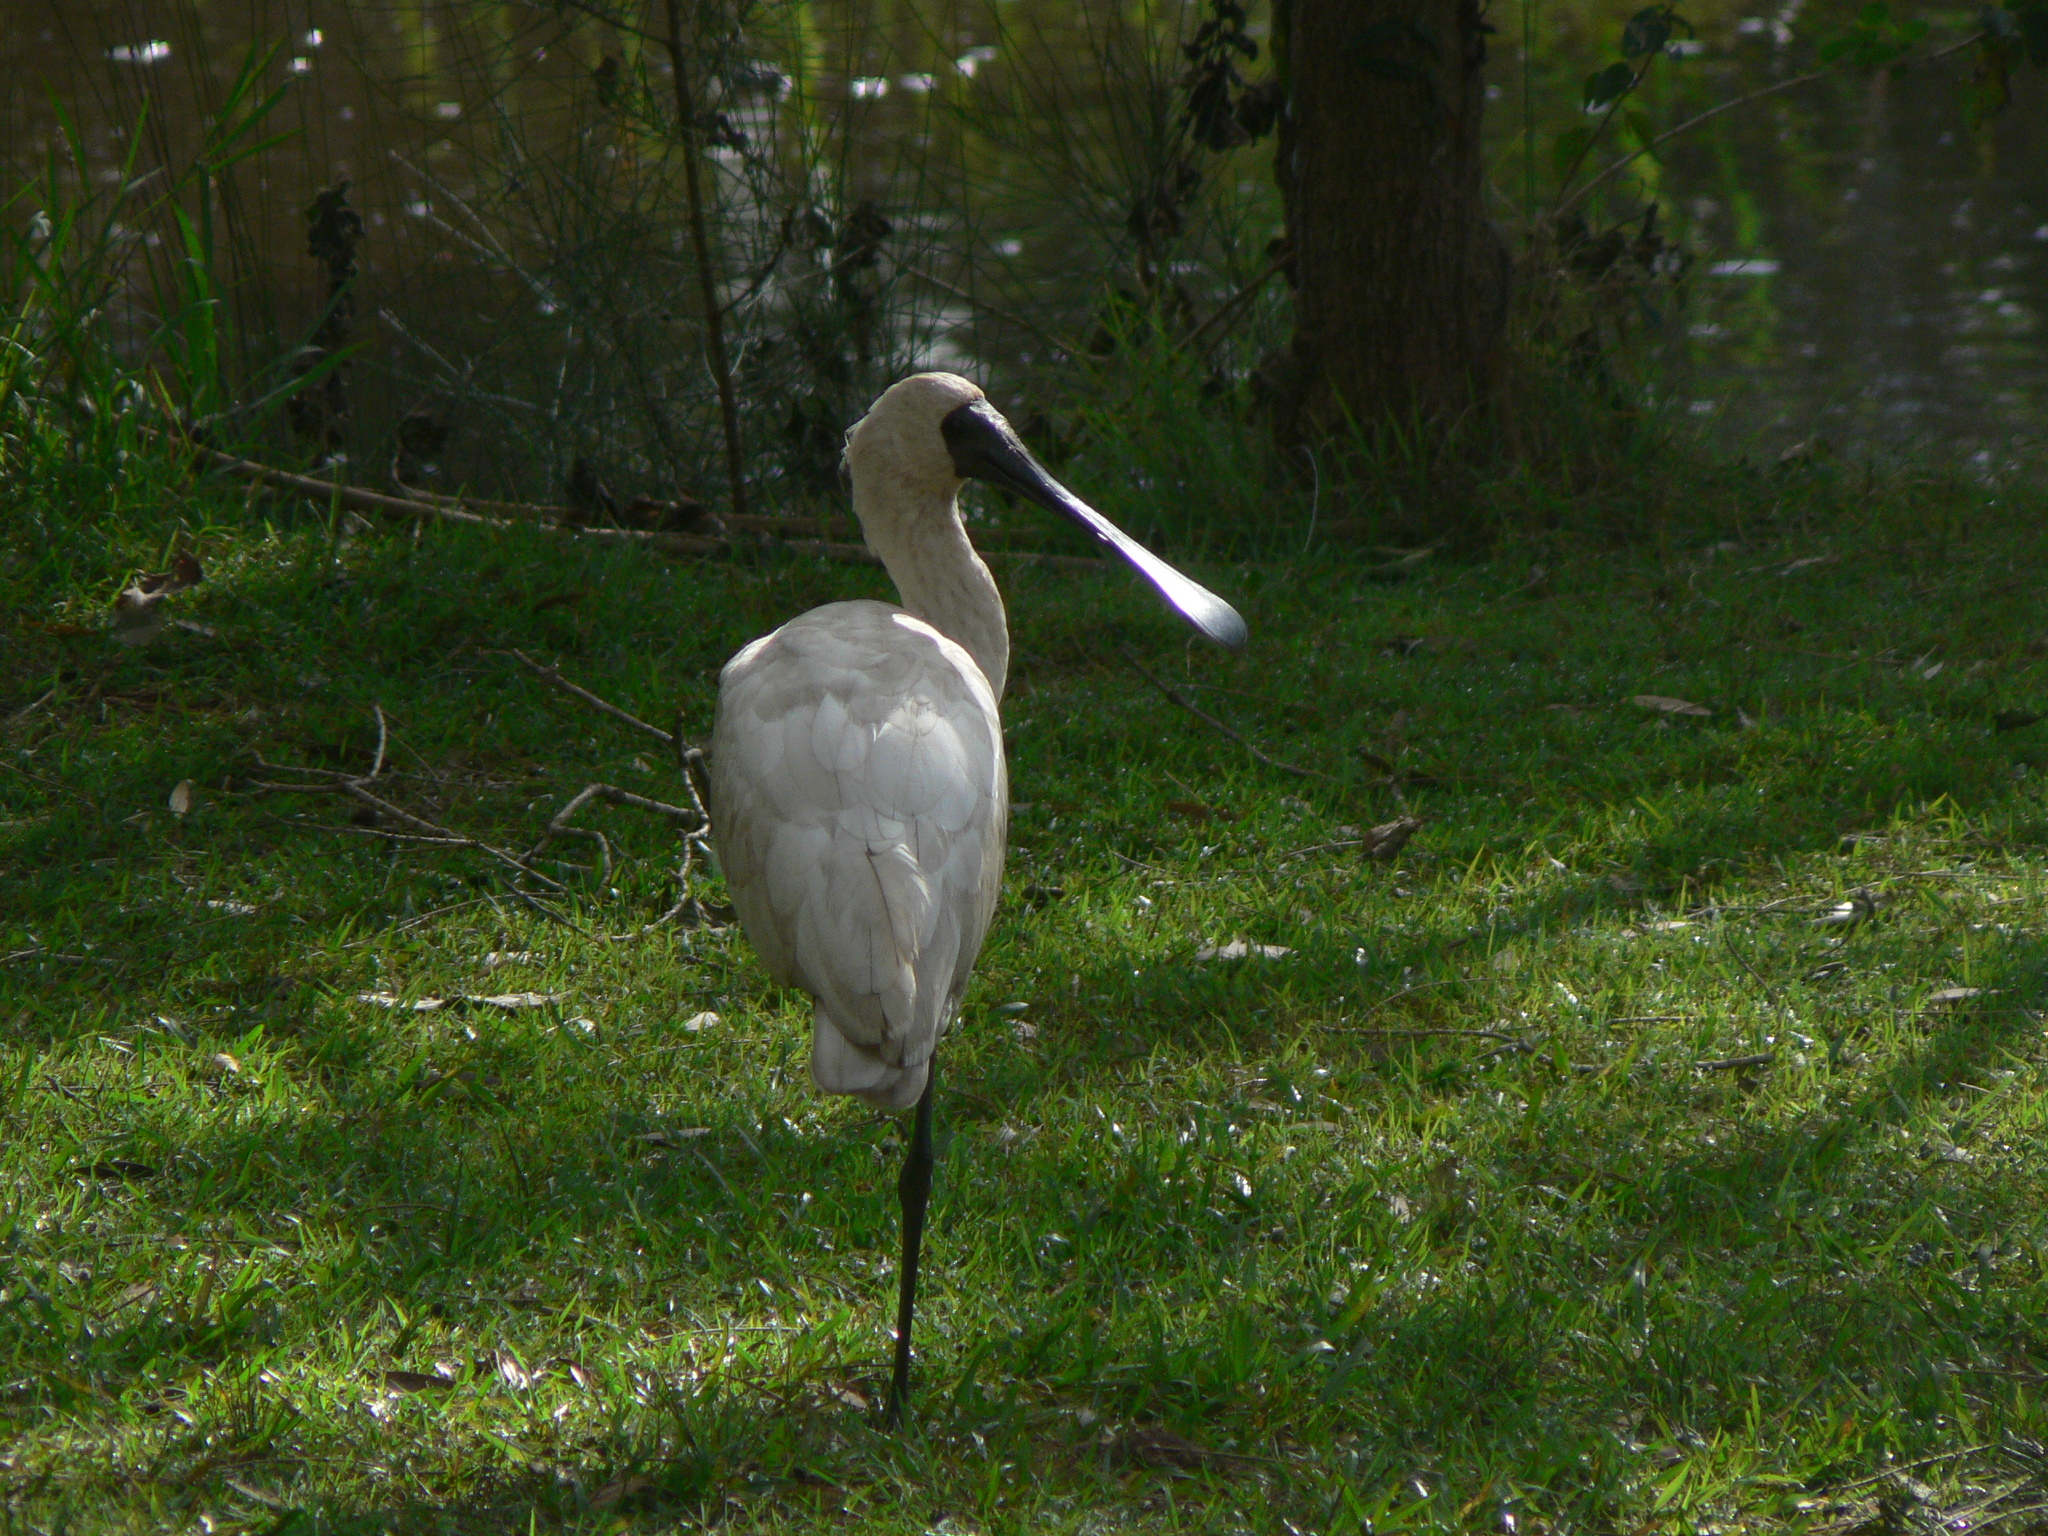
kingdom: Animalia
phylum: Chordata
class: Aves
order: Pelecaniformes
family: Threskiornithidae
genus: Platalea
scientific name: Platalea regia
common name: Royal spoonbill
